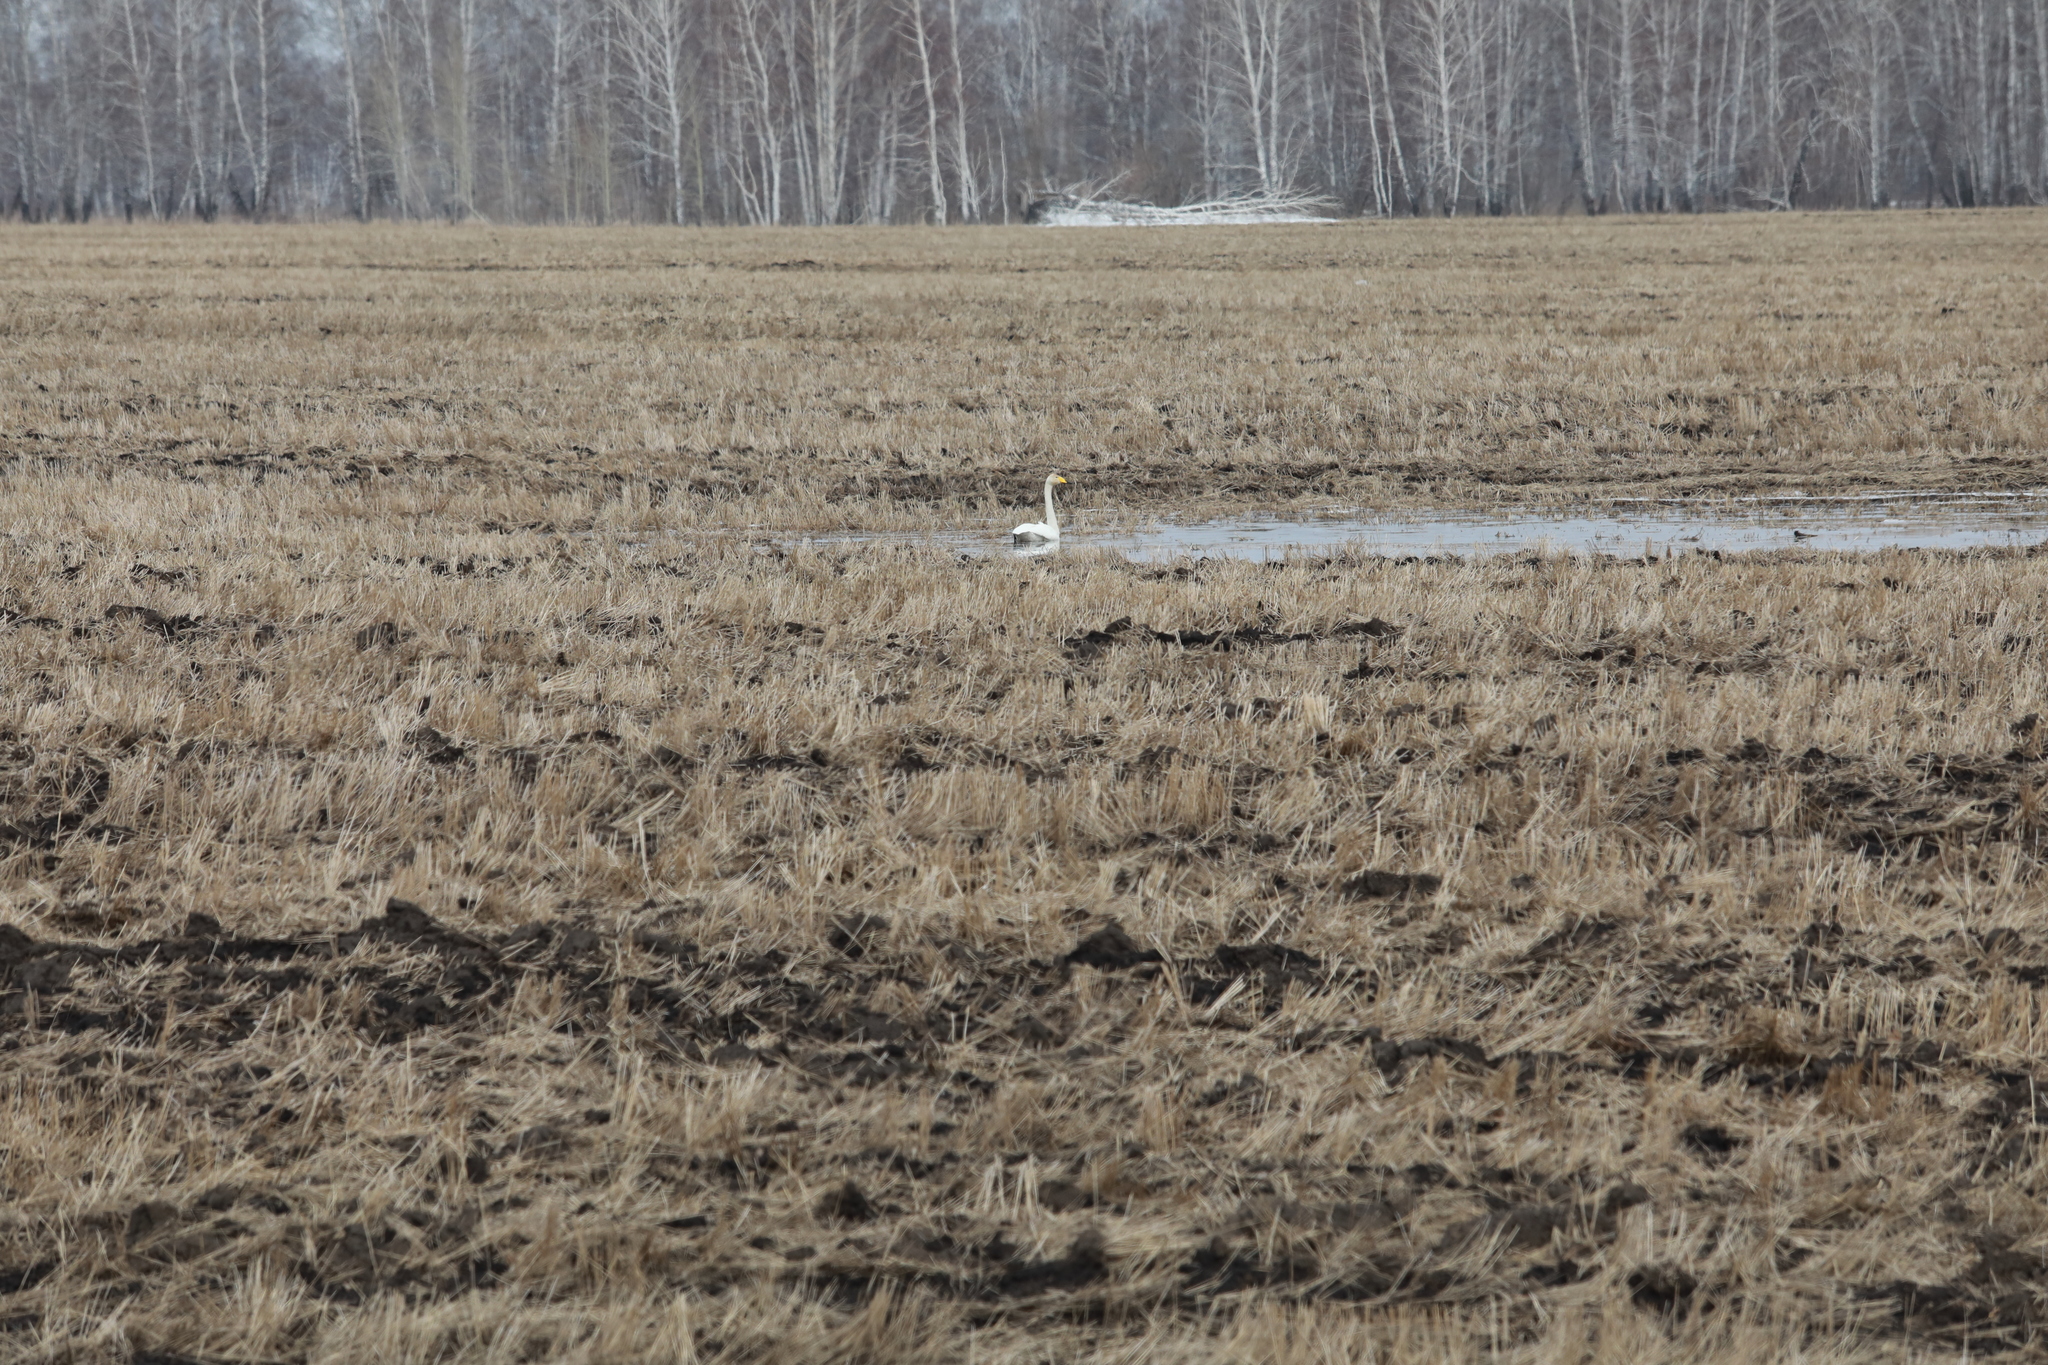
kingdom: Animalia
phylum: Chordata
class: Aves
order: Anseriformes
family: Anatidae
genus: Cygnus
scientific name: Cygnus cygnus
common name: Whooper swan
